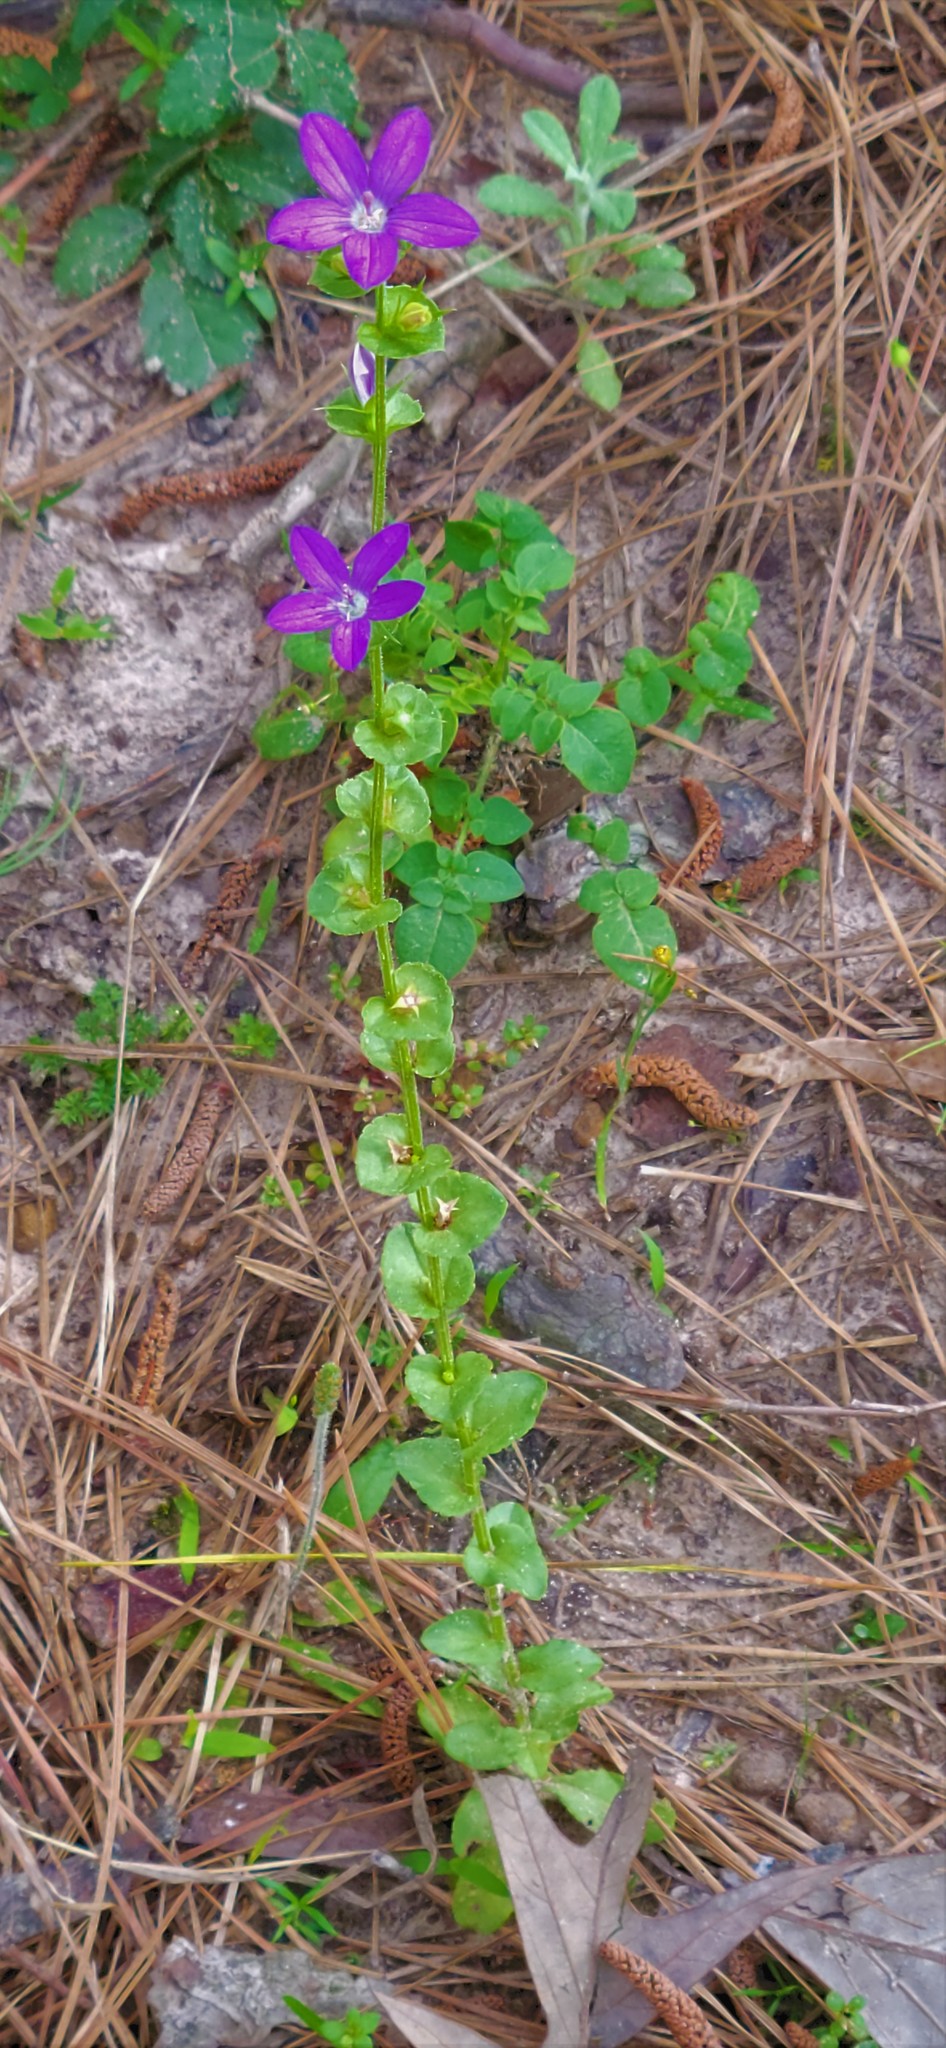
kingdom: Plantae
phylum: Tracheophyta
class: Magnoliopsida
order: Asterales
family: Campanulaceae
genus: Triodanis
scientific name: Triodanis perfoliata
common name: Clasping venus' looking-glass
